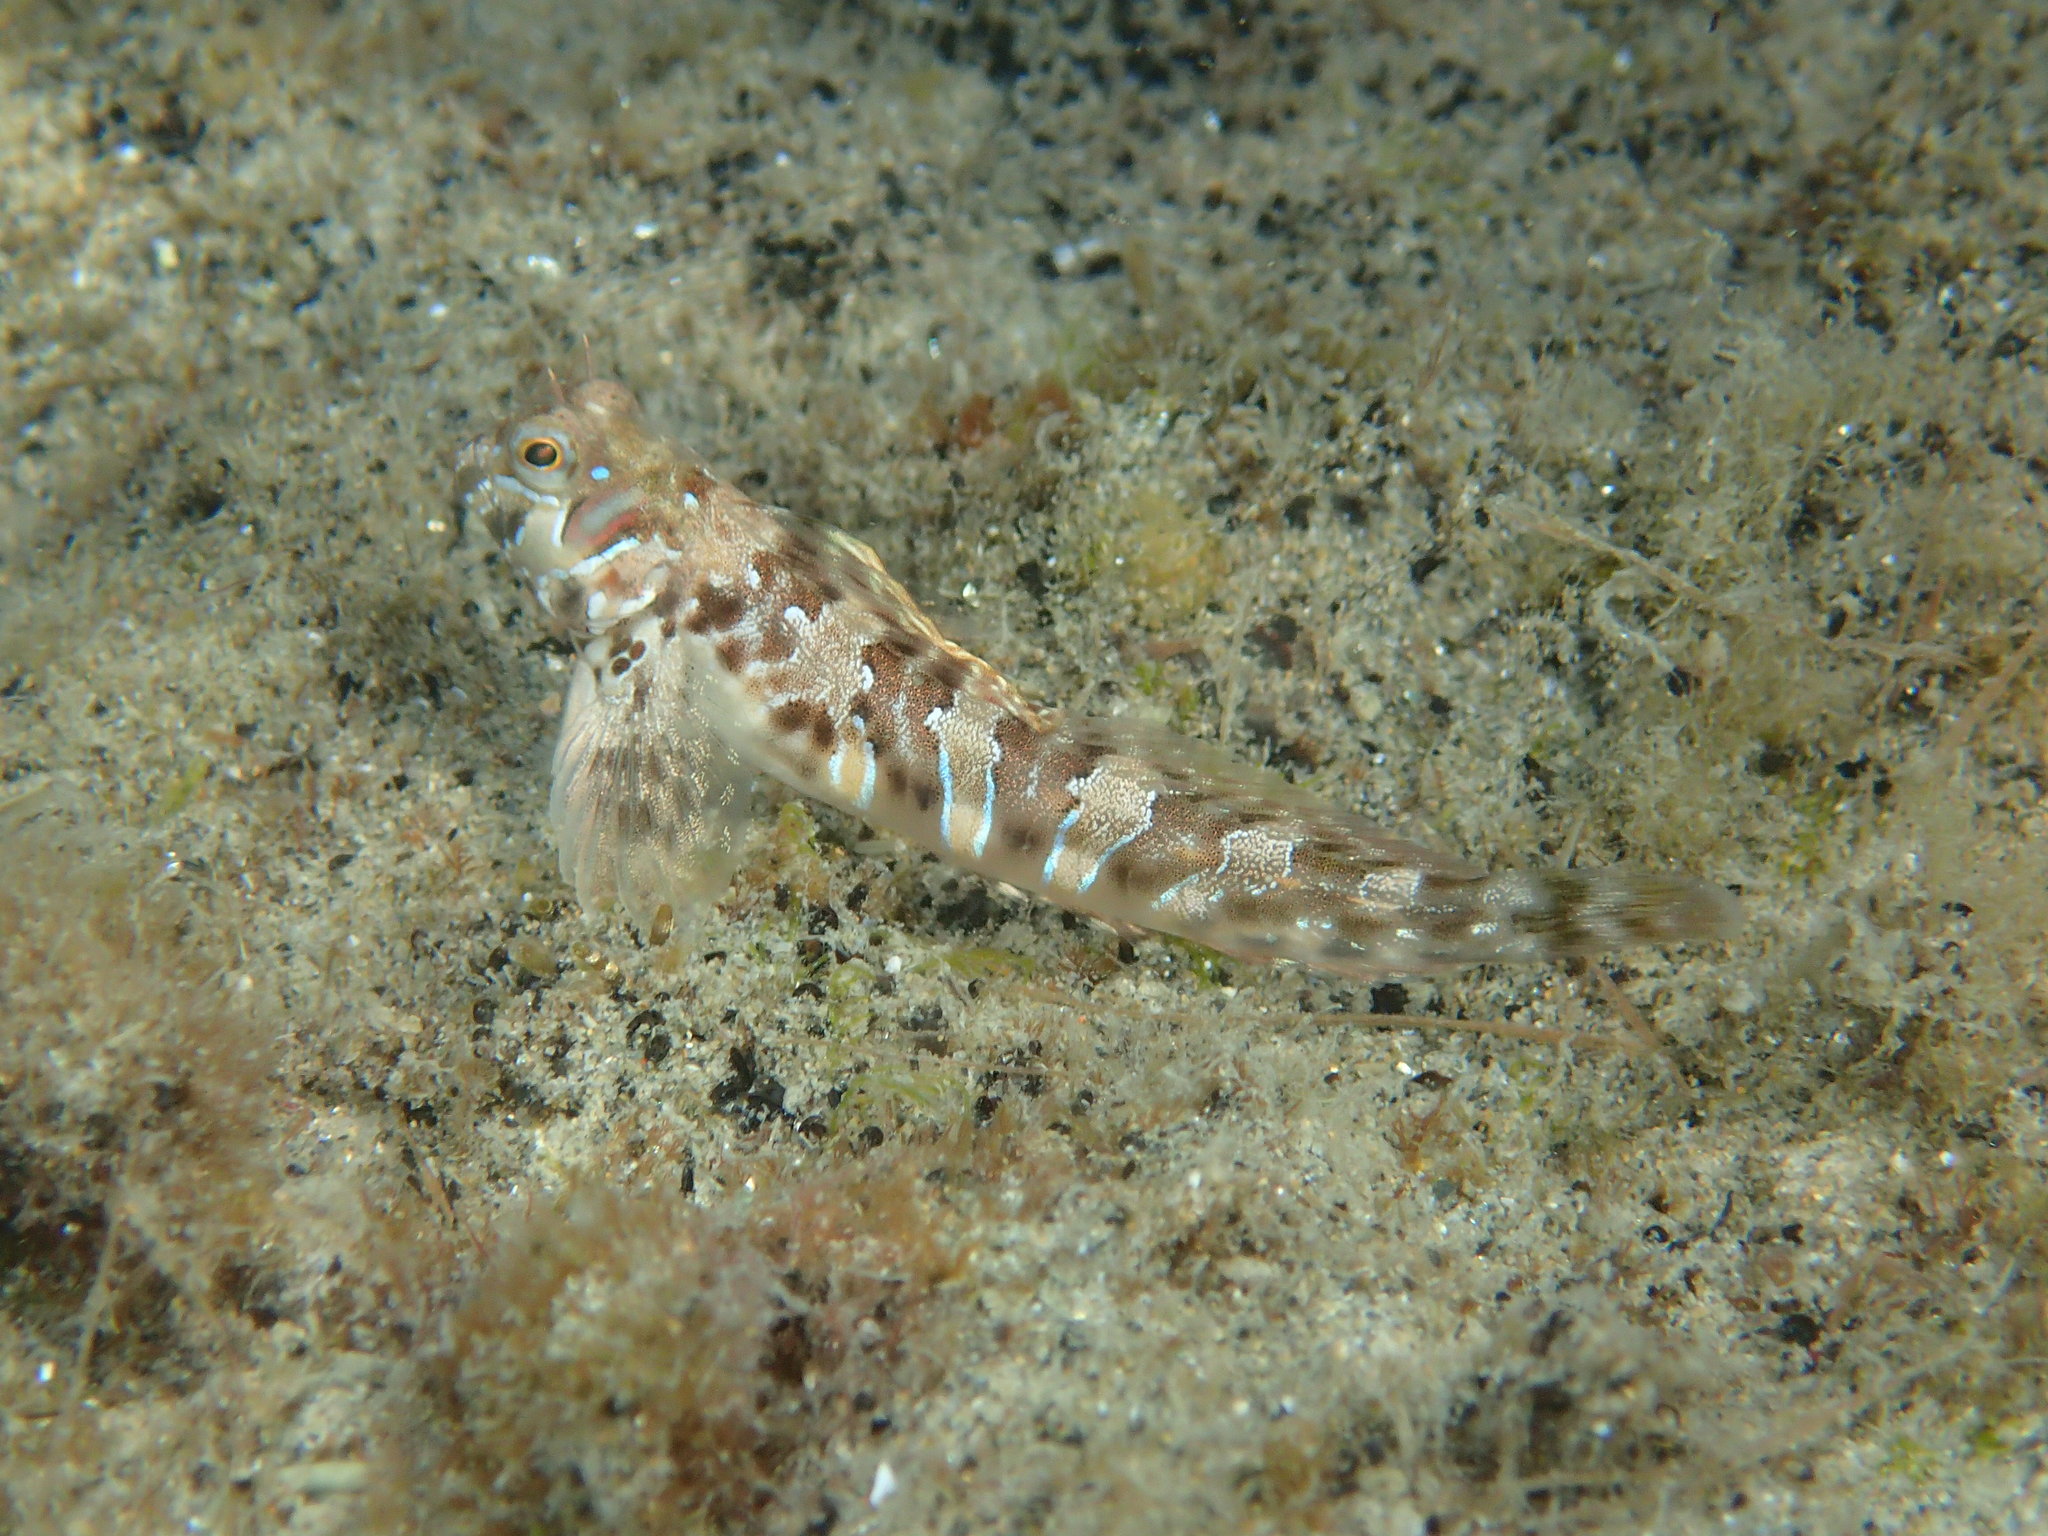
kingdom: Animalia
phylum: Chordata
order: Perciformes
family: Blenniidae
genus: Aidablennius
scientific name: Aidablennius sphynx
